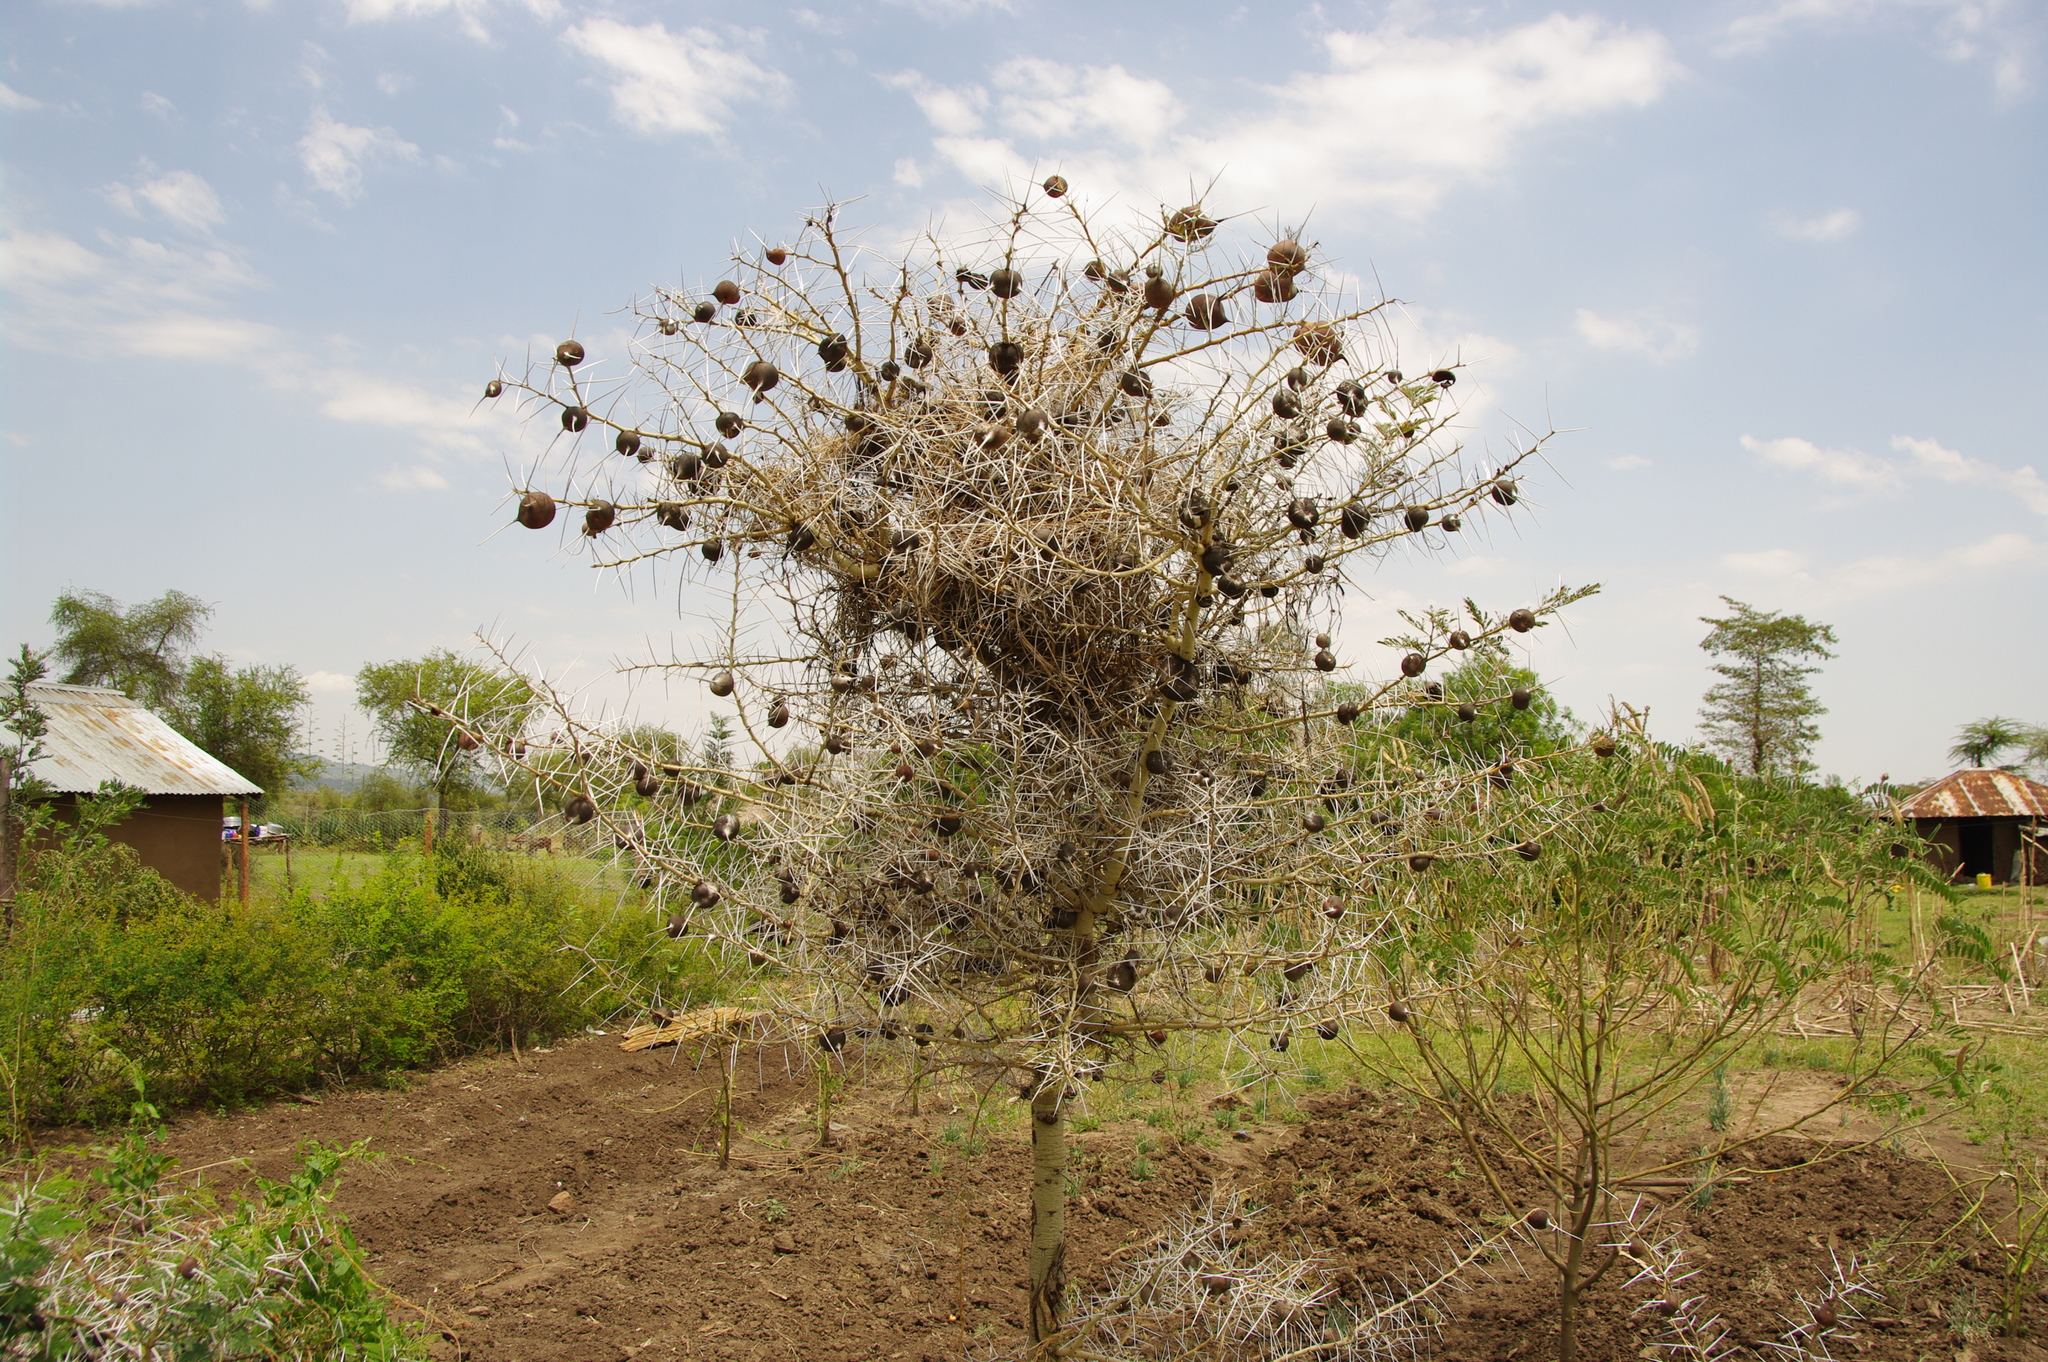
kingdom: Plantae
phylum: Tracheophyta
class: Magnoliopsida
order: Fabales
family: Fabaceae
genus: Vachellia
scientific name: Vachellia drepanolobium
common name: Whistling thorn
